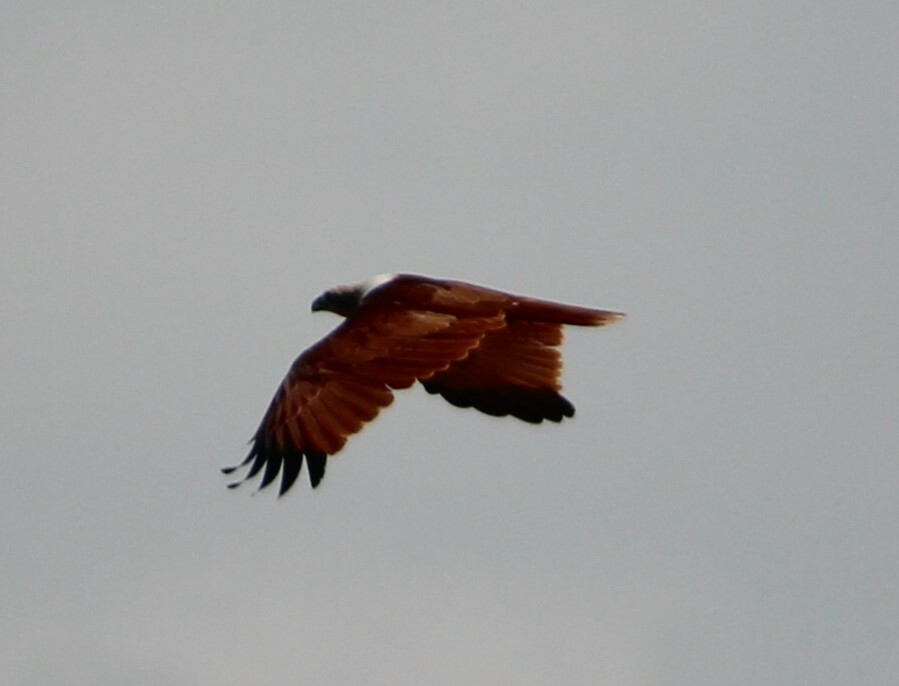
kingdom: Animalia
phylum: Chordata
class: Aves
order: Accipitriformes
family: Accipitridae
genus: Haliastur
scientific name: Haliastur indus
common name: Brahminy kite
